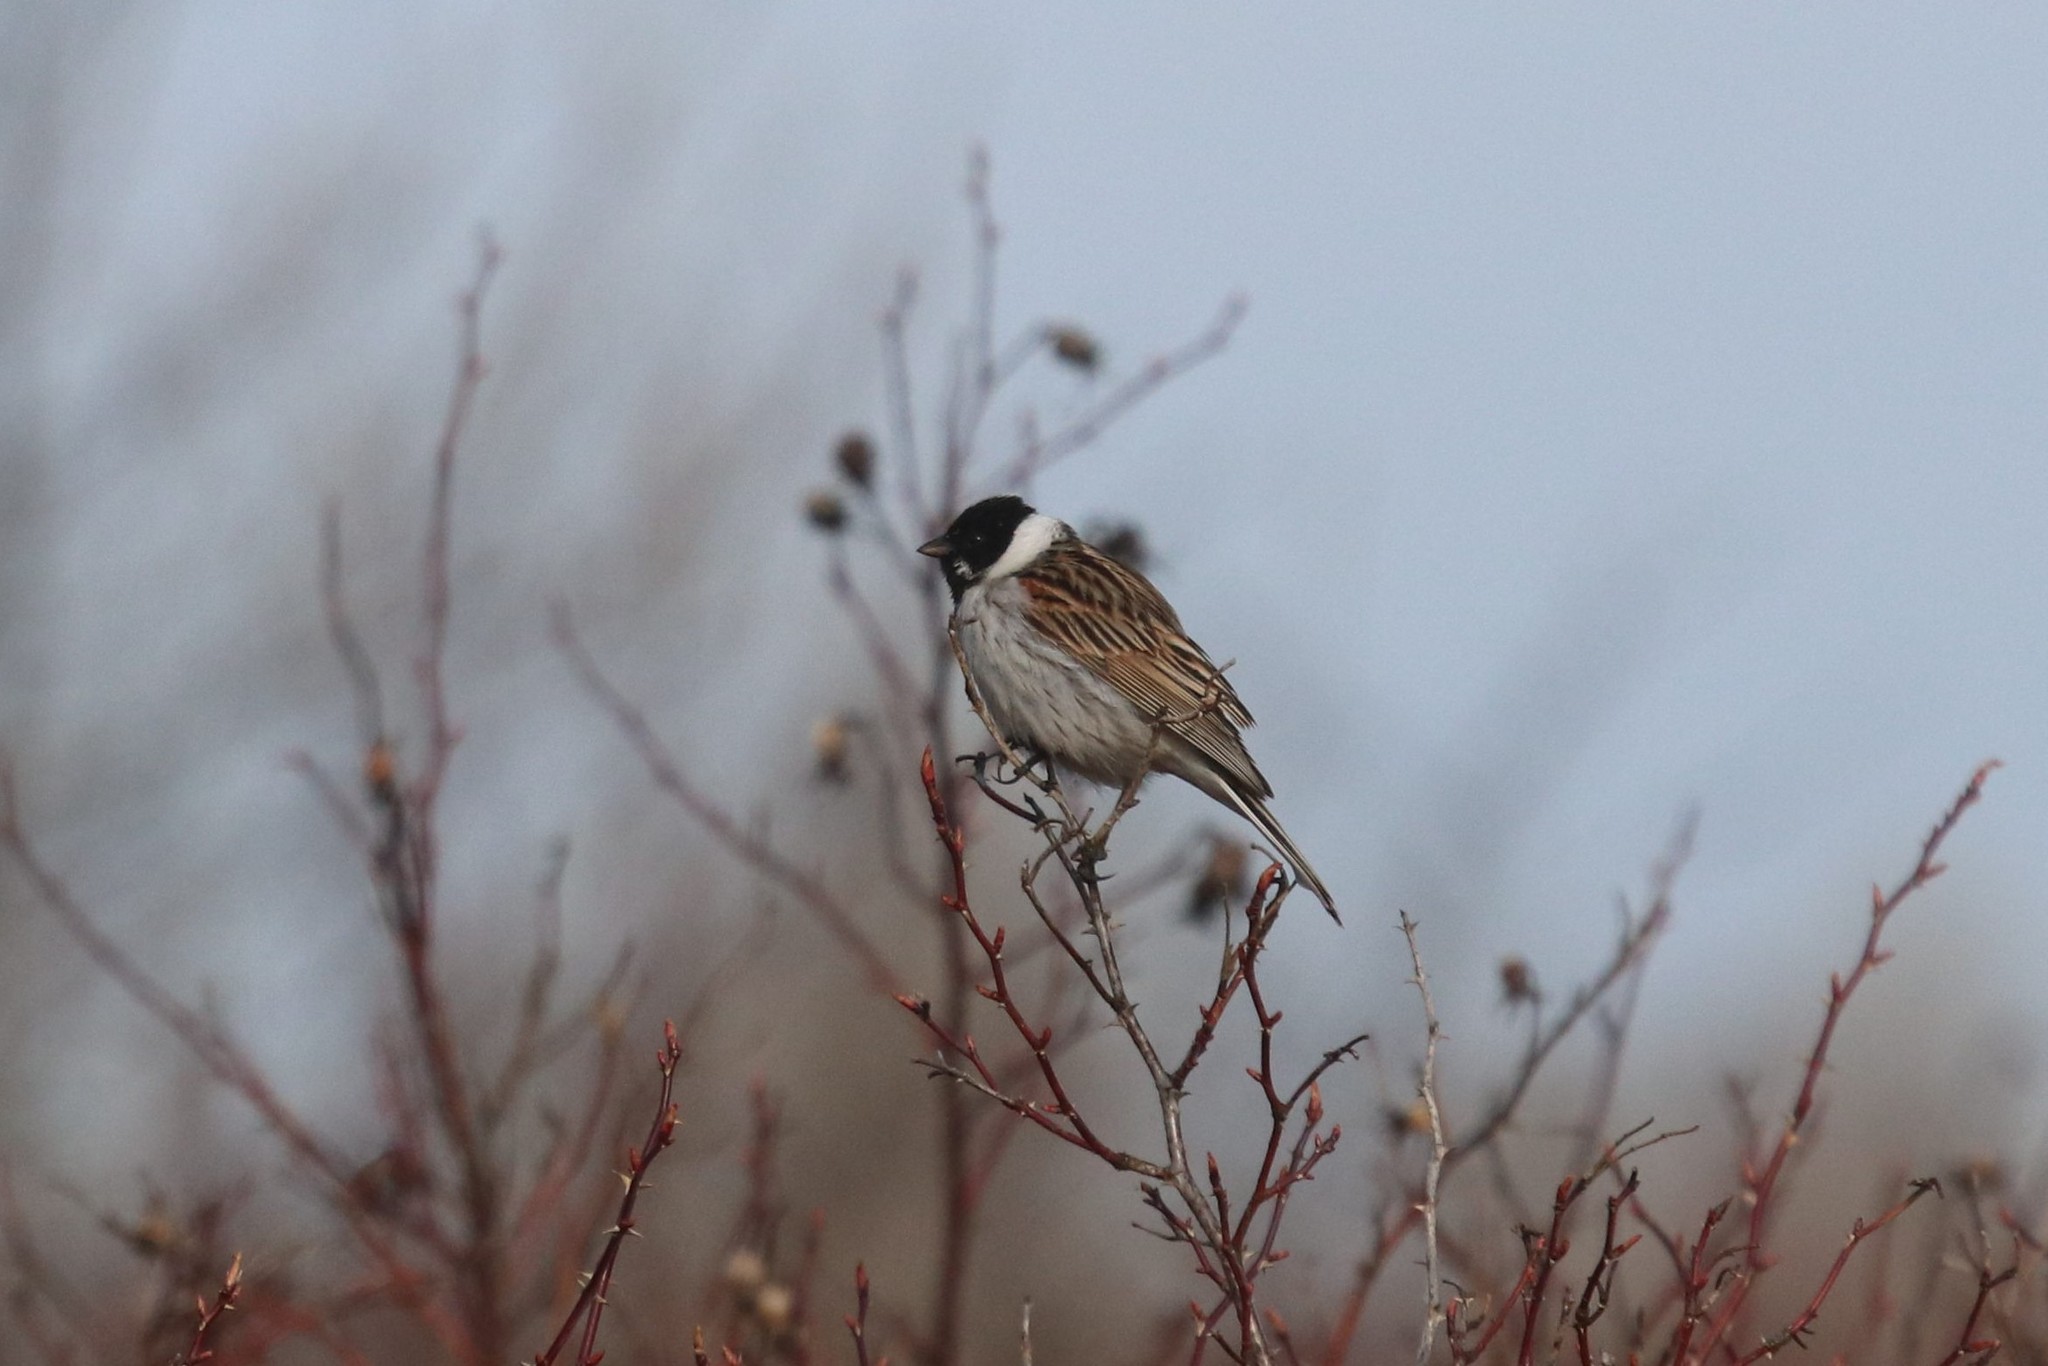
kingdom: Animalia
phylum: Chordata
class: Aves
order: Passeriformes
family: Emberizidae
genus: Emberiza
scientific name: Emberiza schoeniclus
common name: Reed bunting
